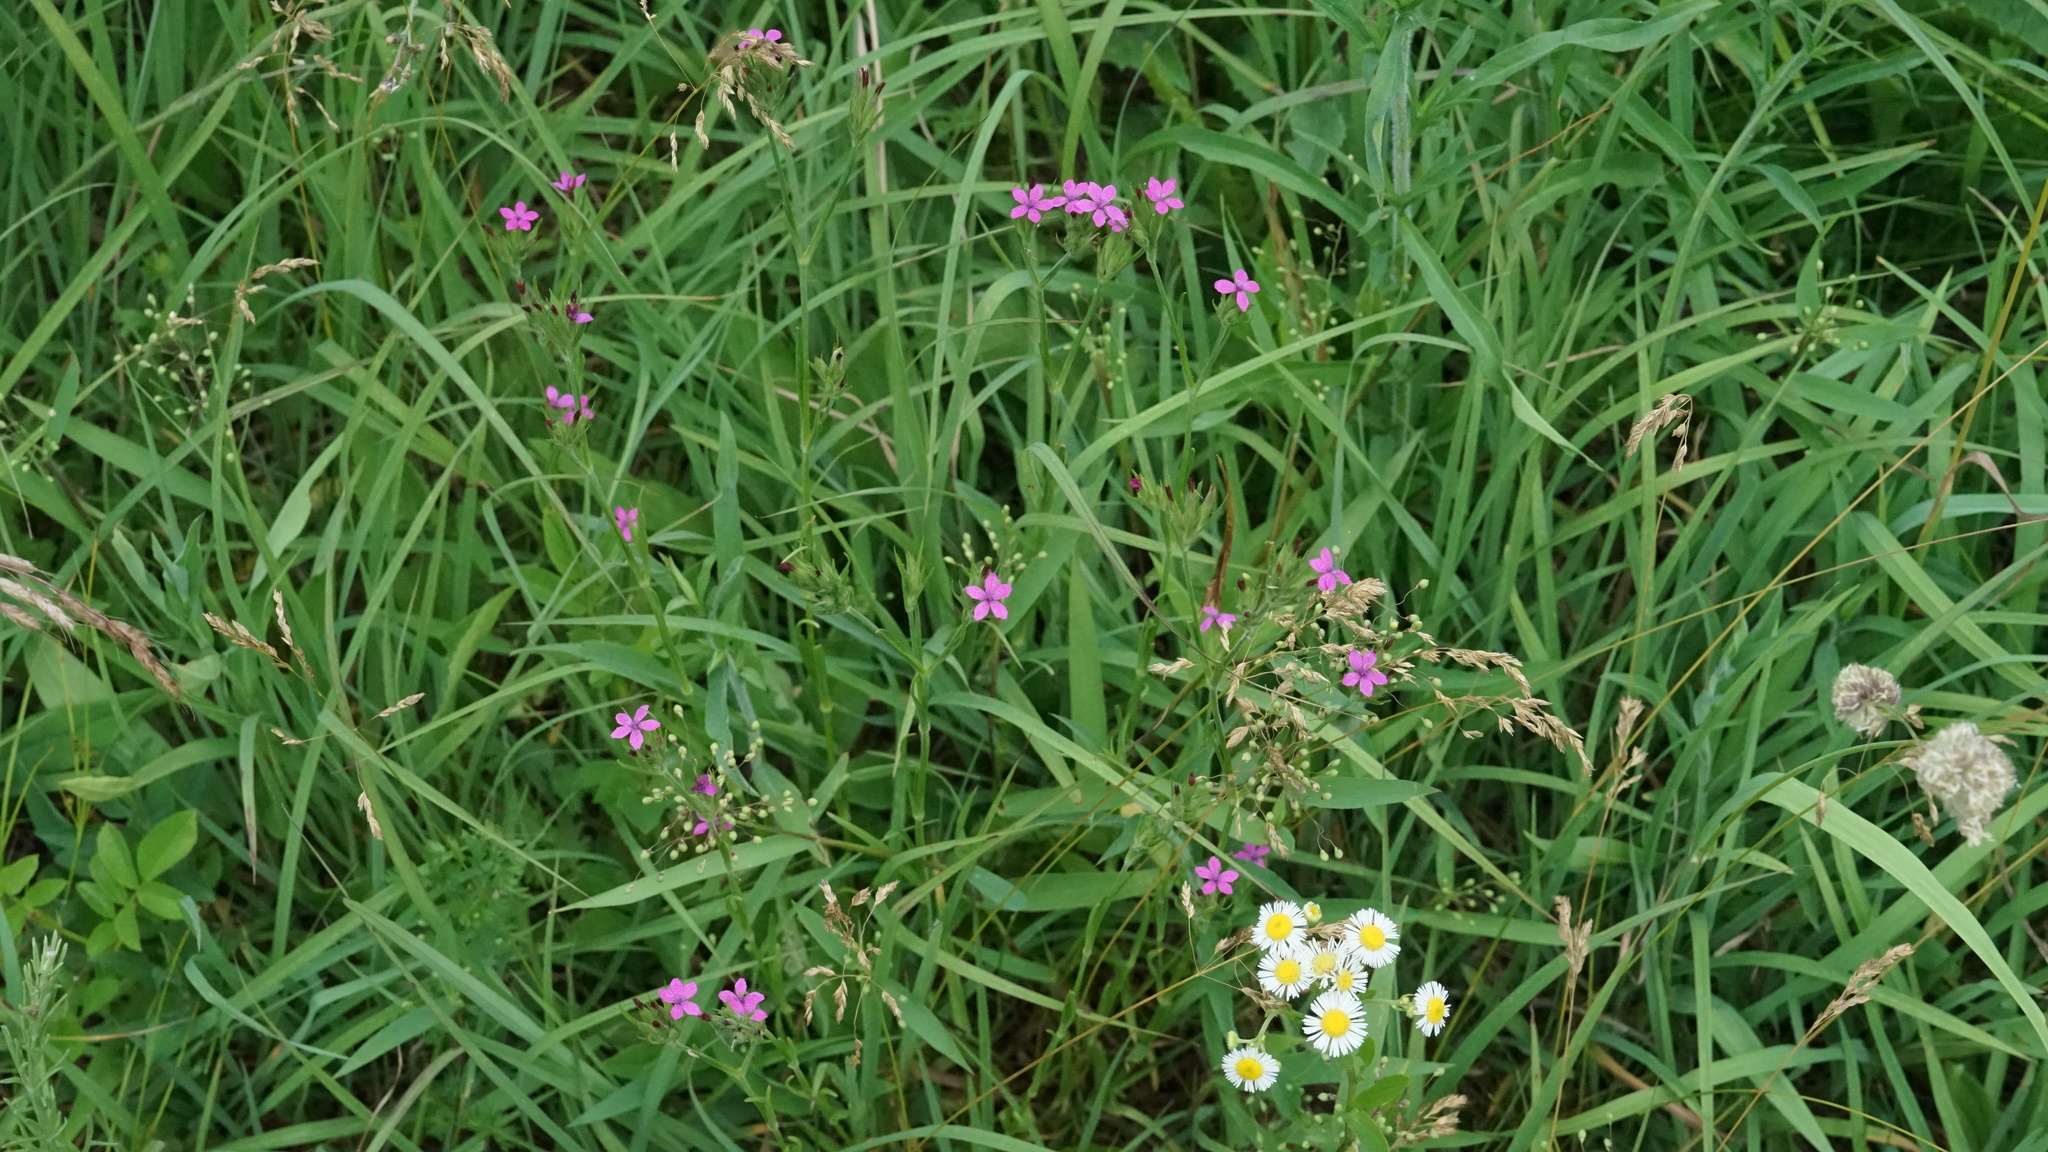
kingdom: Plantae
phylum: Tracheophyta
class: Magnoliopsida
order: Caryophyllales
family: Caryophyllaceae
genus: Dianthus
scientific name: Dianthus armeria
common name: Deptford pink
